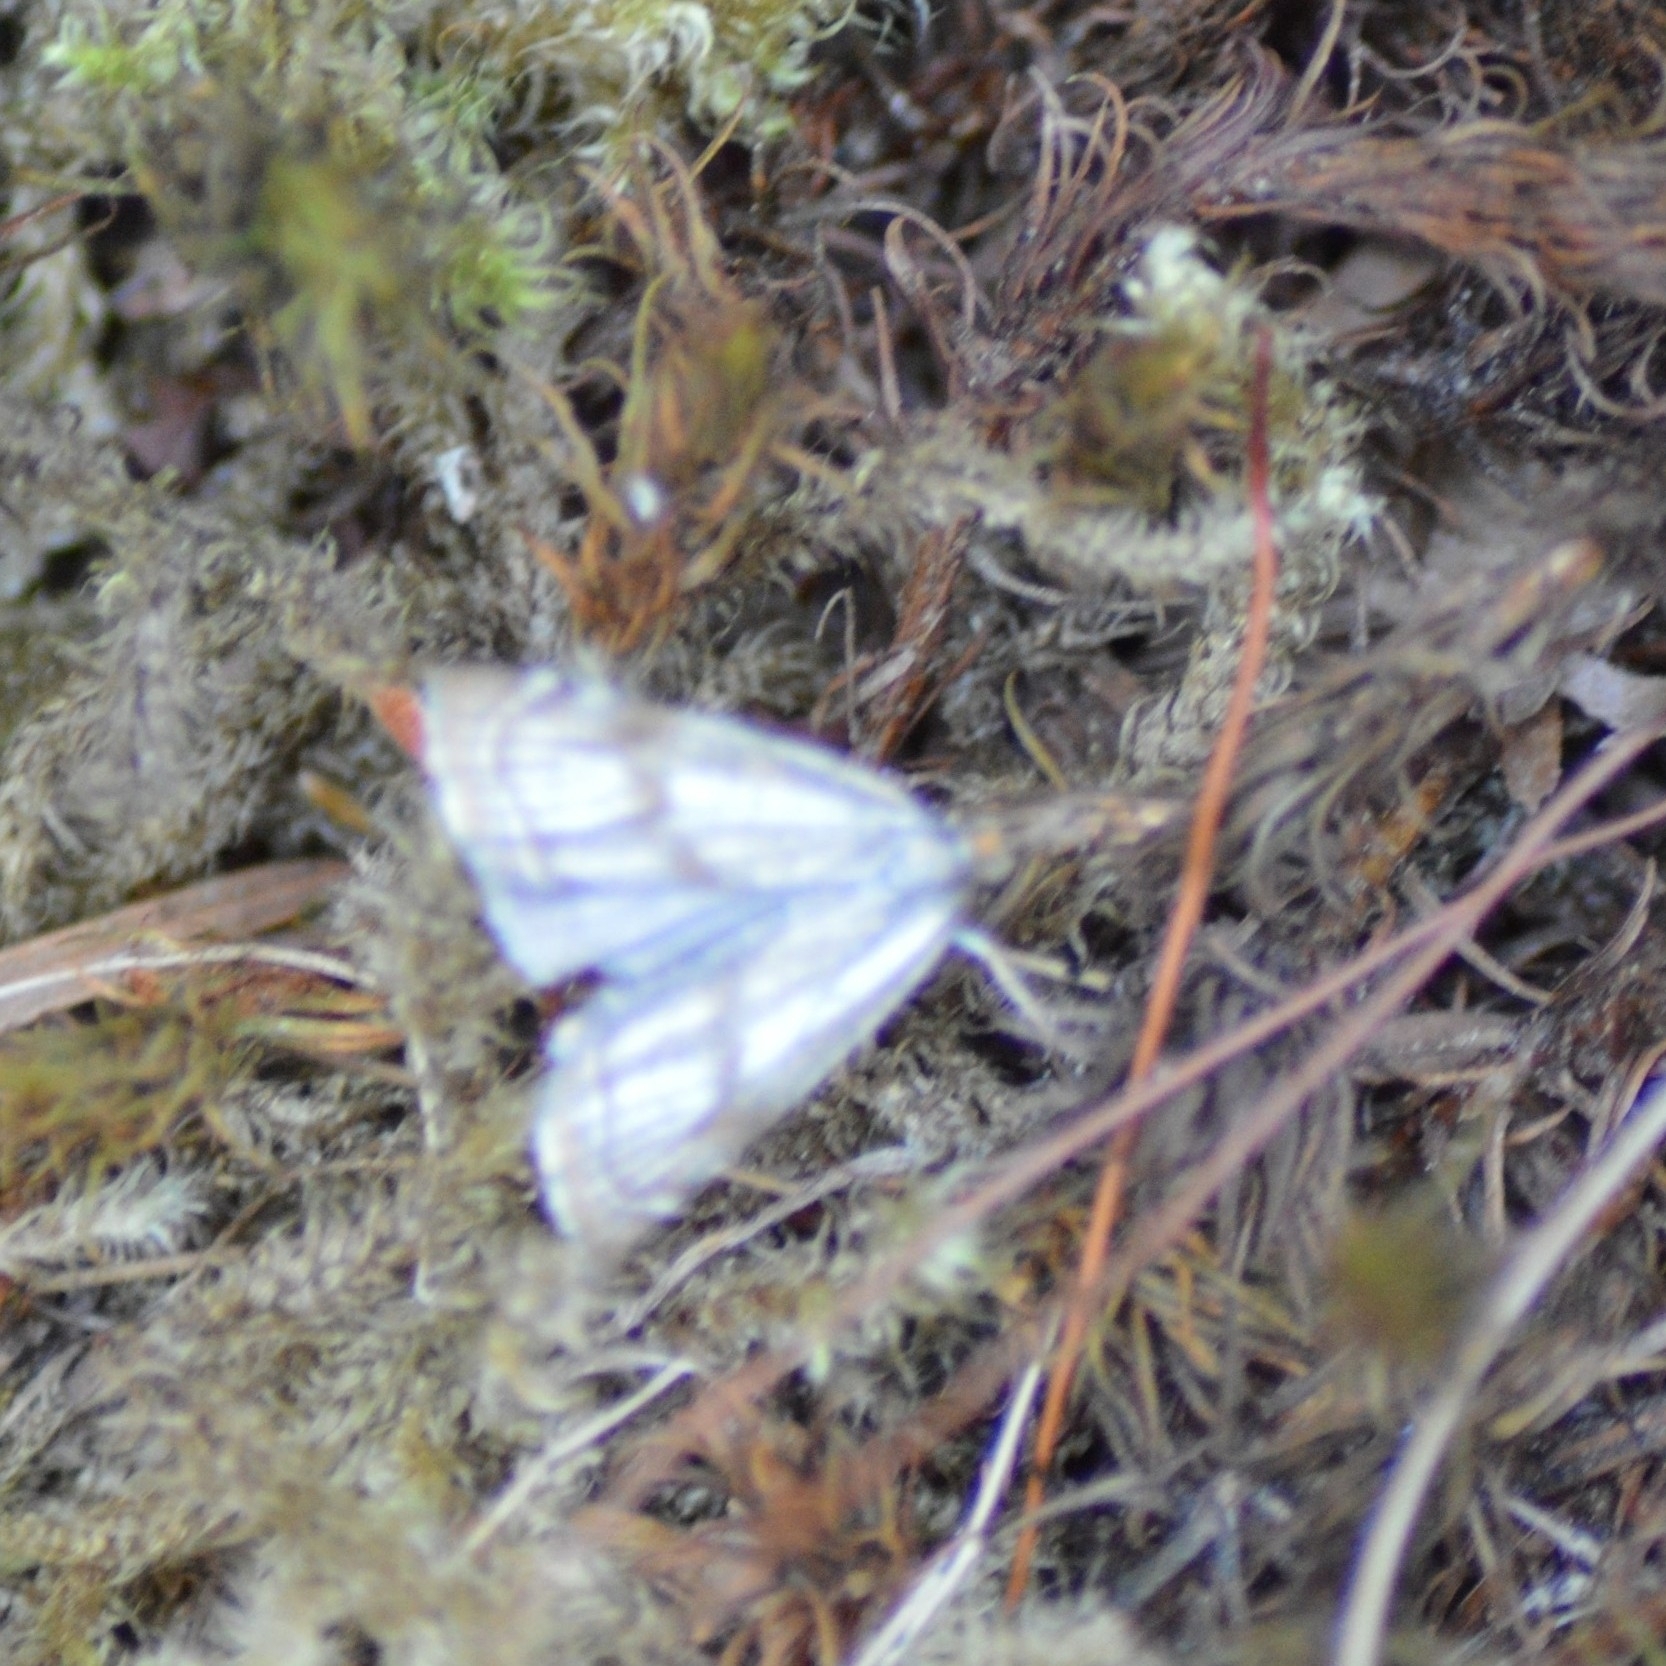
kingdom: Animalia
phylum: Arthropoda
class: Insecta
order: Lepidoptera
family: Crambidae
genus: Thisanotia
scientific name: Thisanotia chrysonuchella
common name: Powdered grass-veneer
